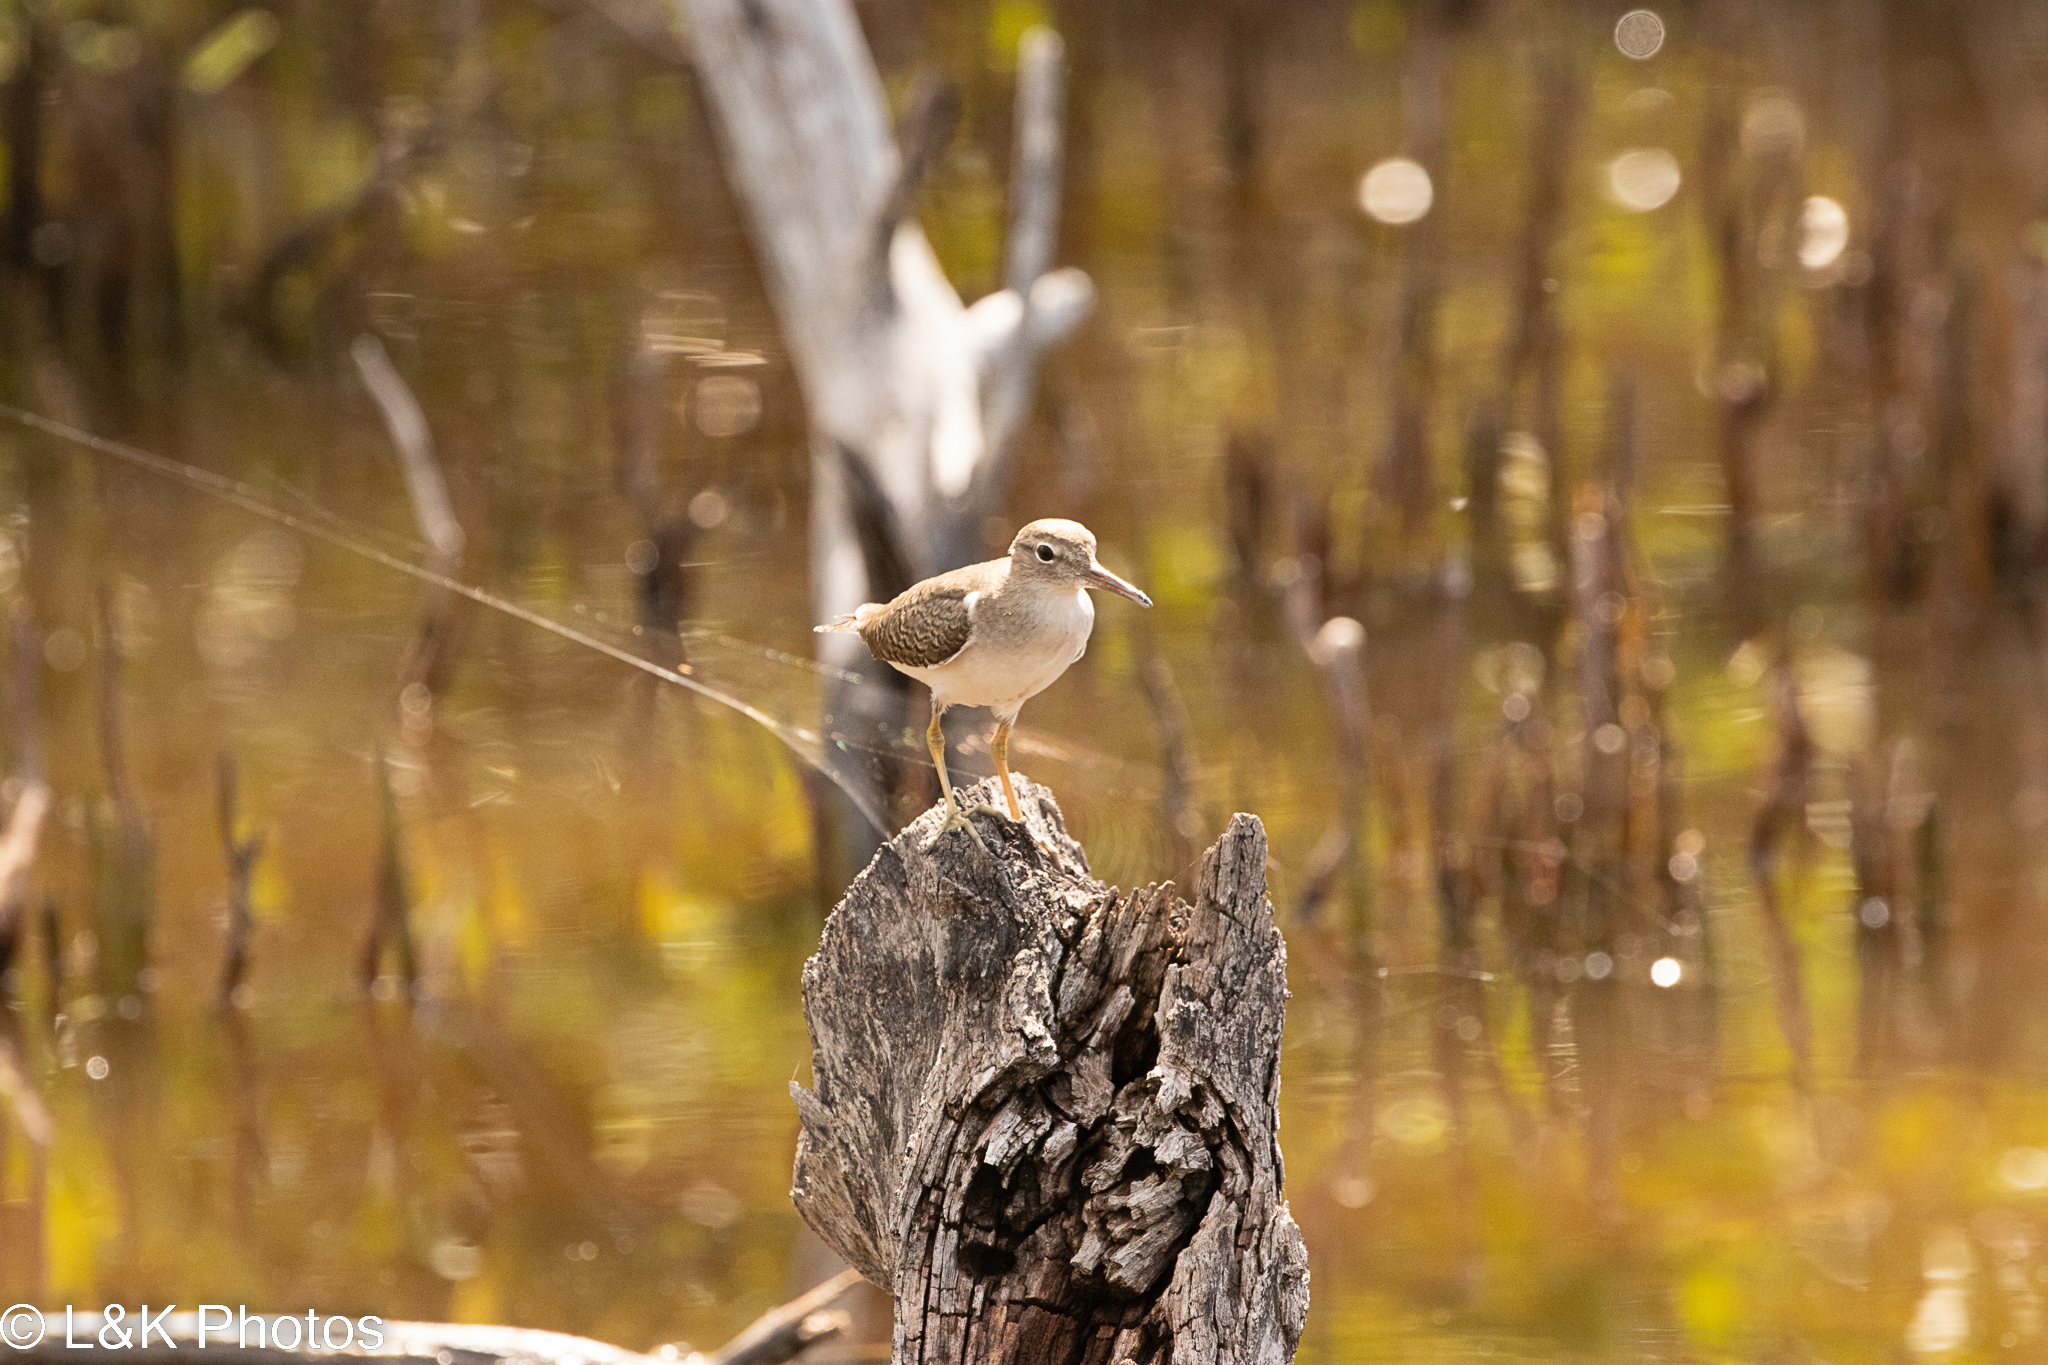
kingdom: Animalia
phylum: Chordata
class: Aves
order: Charadriiformes
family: Scolopacidae
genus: Actitis
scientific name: Actitis macularius
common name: Spotted sandpiper
